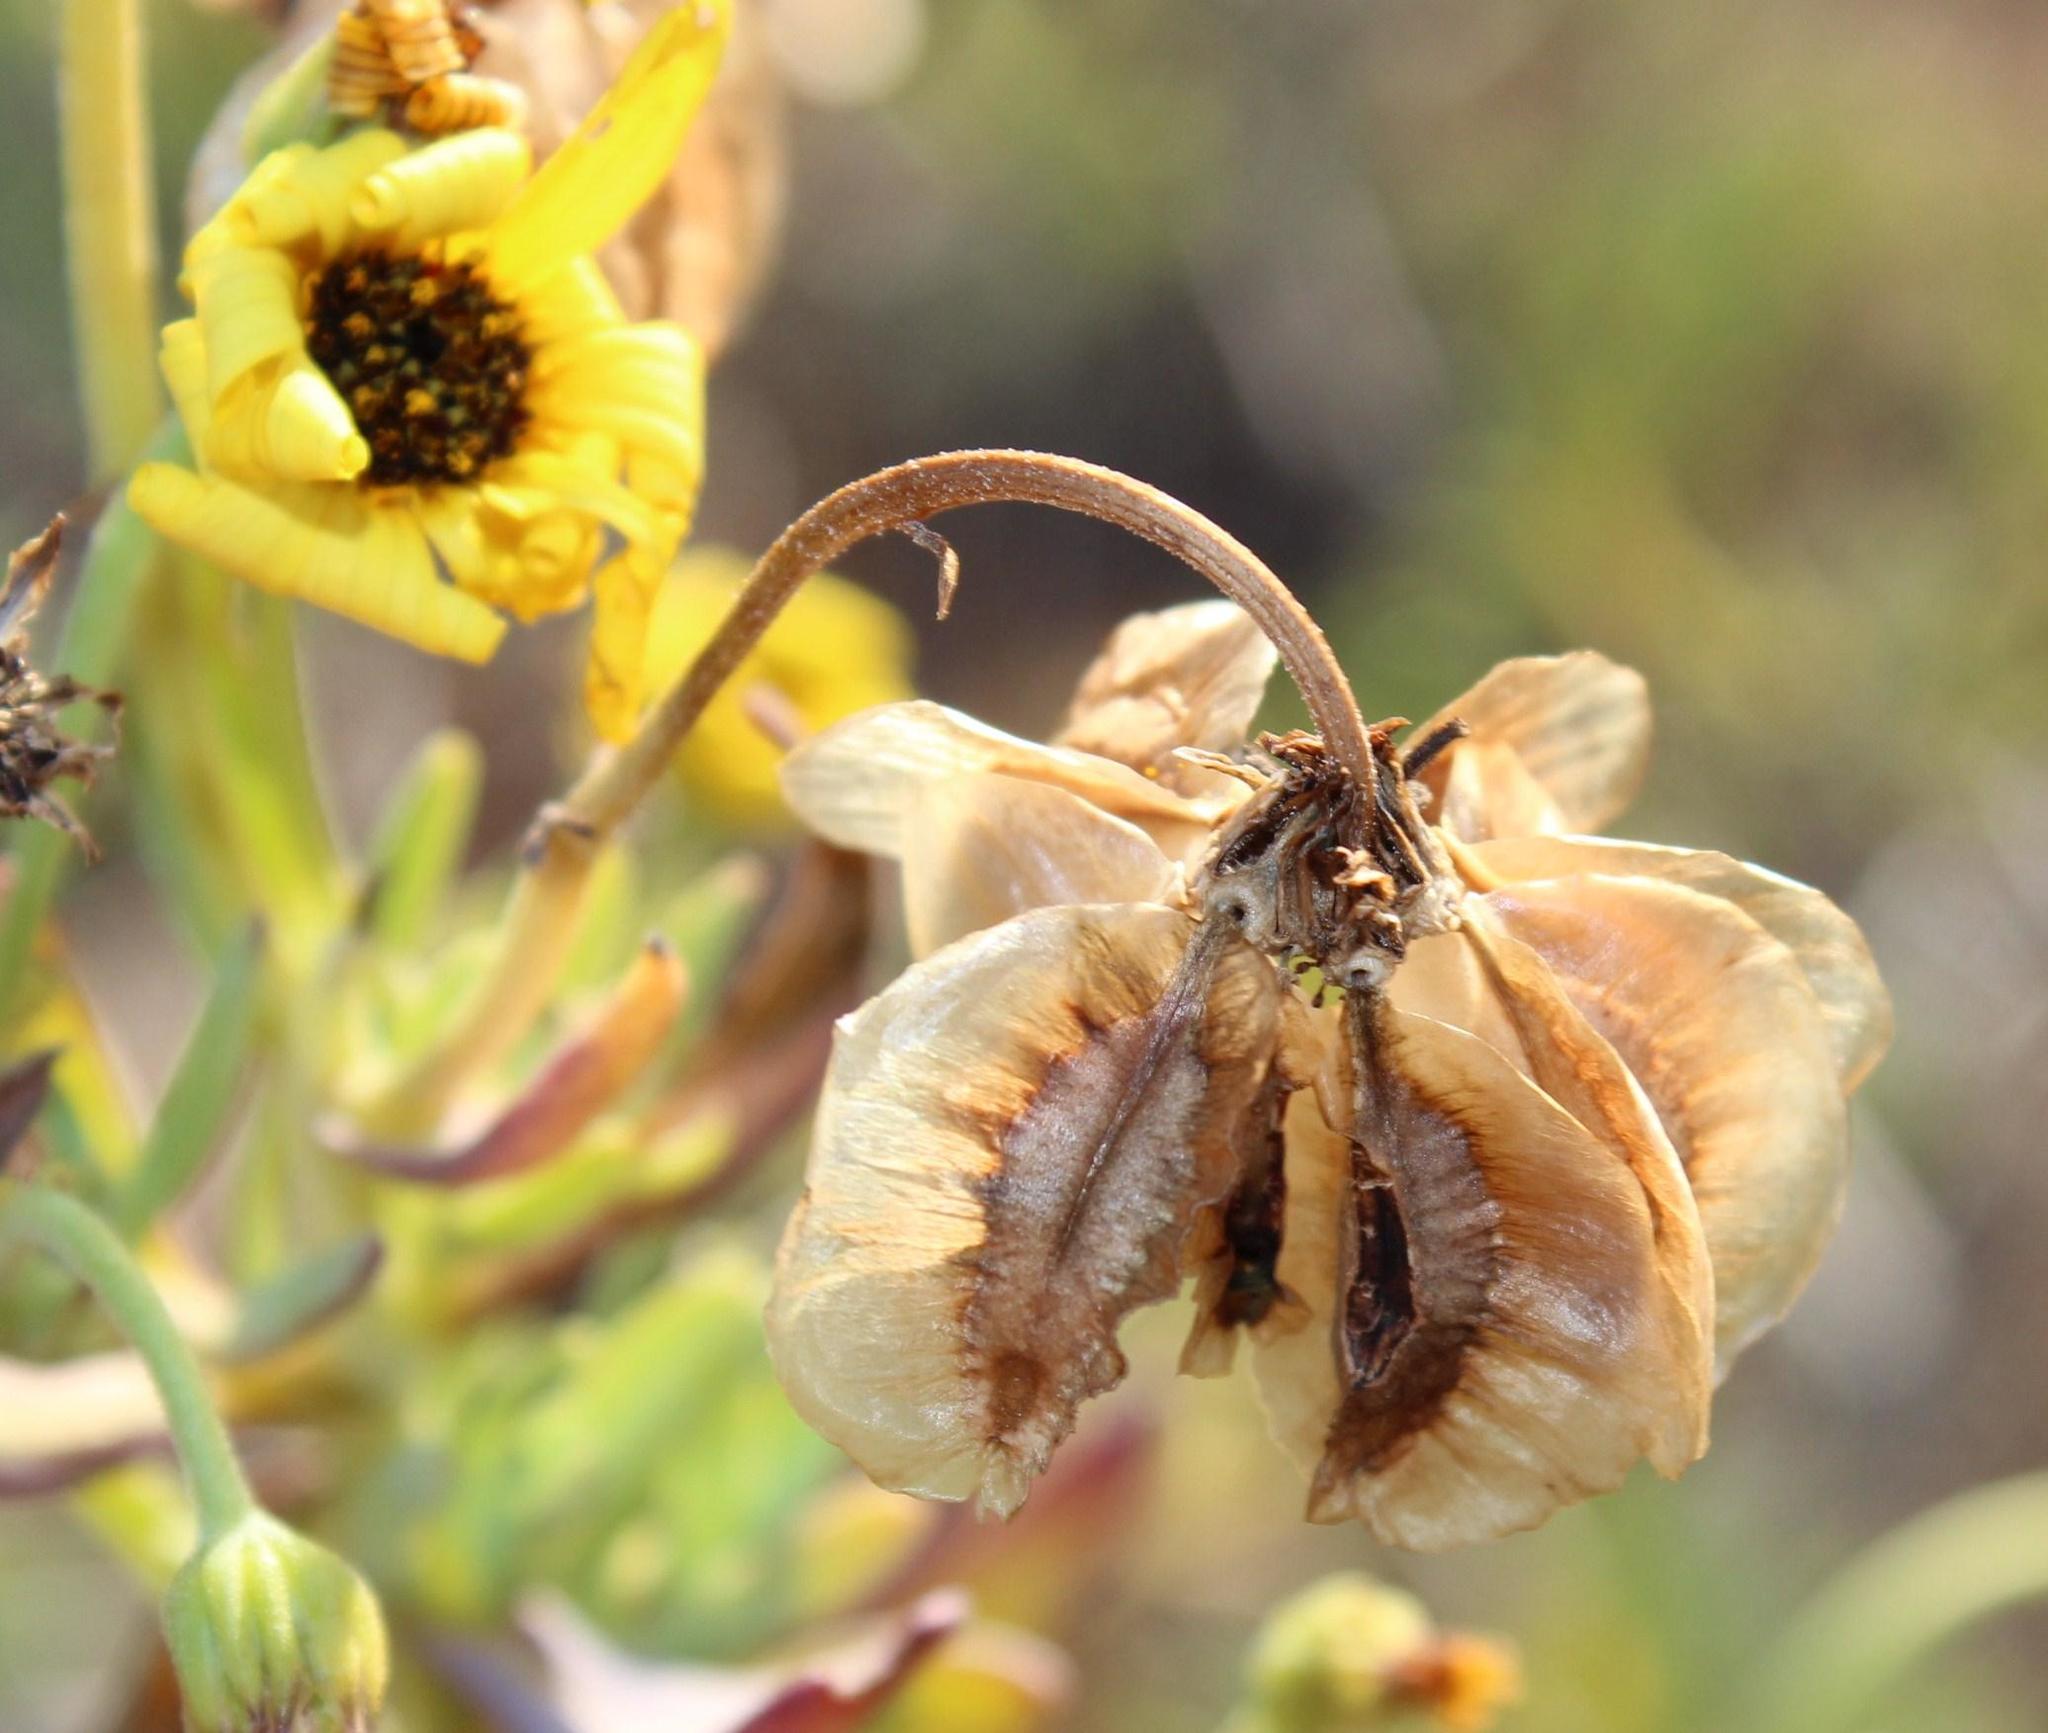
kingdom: Plantae
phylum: Tracheophyta
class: Magnoliopsida
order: Asterales
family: Asteraceae
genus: Osteospermum
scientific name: Osteospermum oppositifolium
